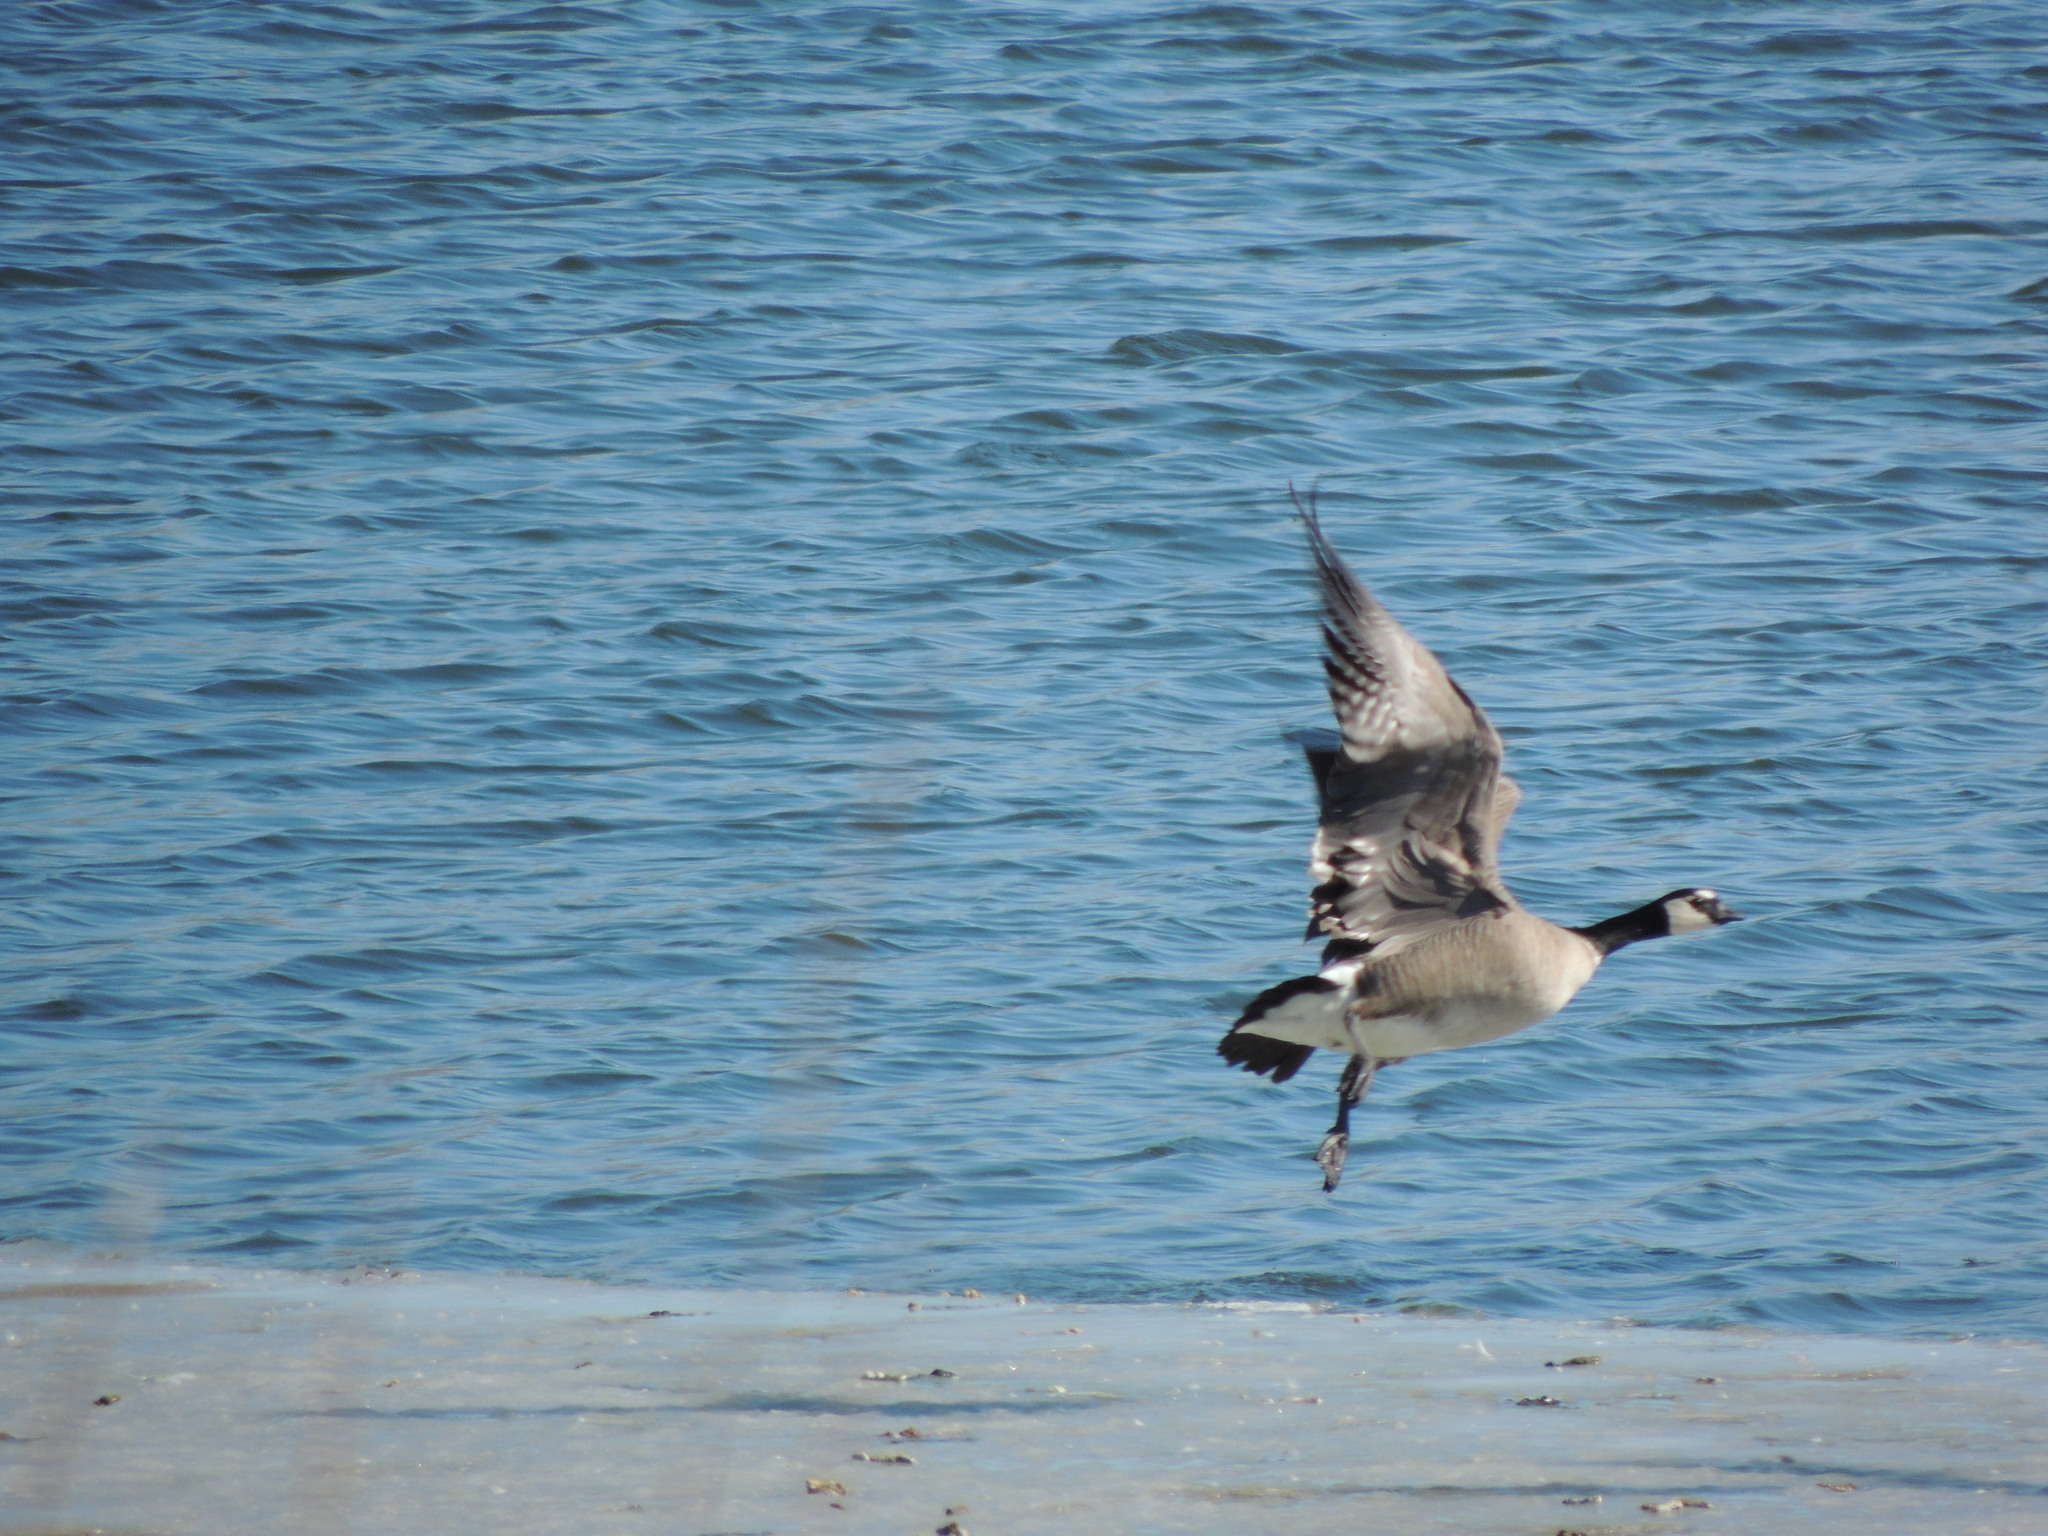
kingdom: Animalia
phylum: Chordata
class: Aves
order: Anseriformes
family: Anatidae
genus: Branta
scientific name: Branta hutchinsii
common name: Cackling goose
